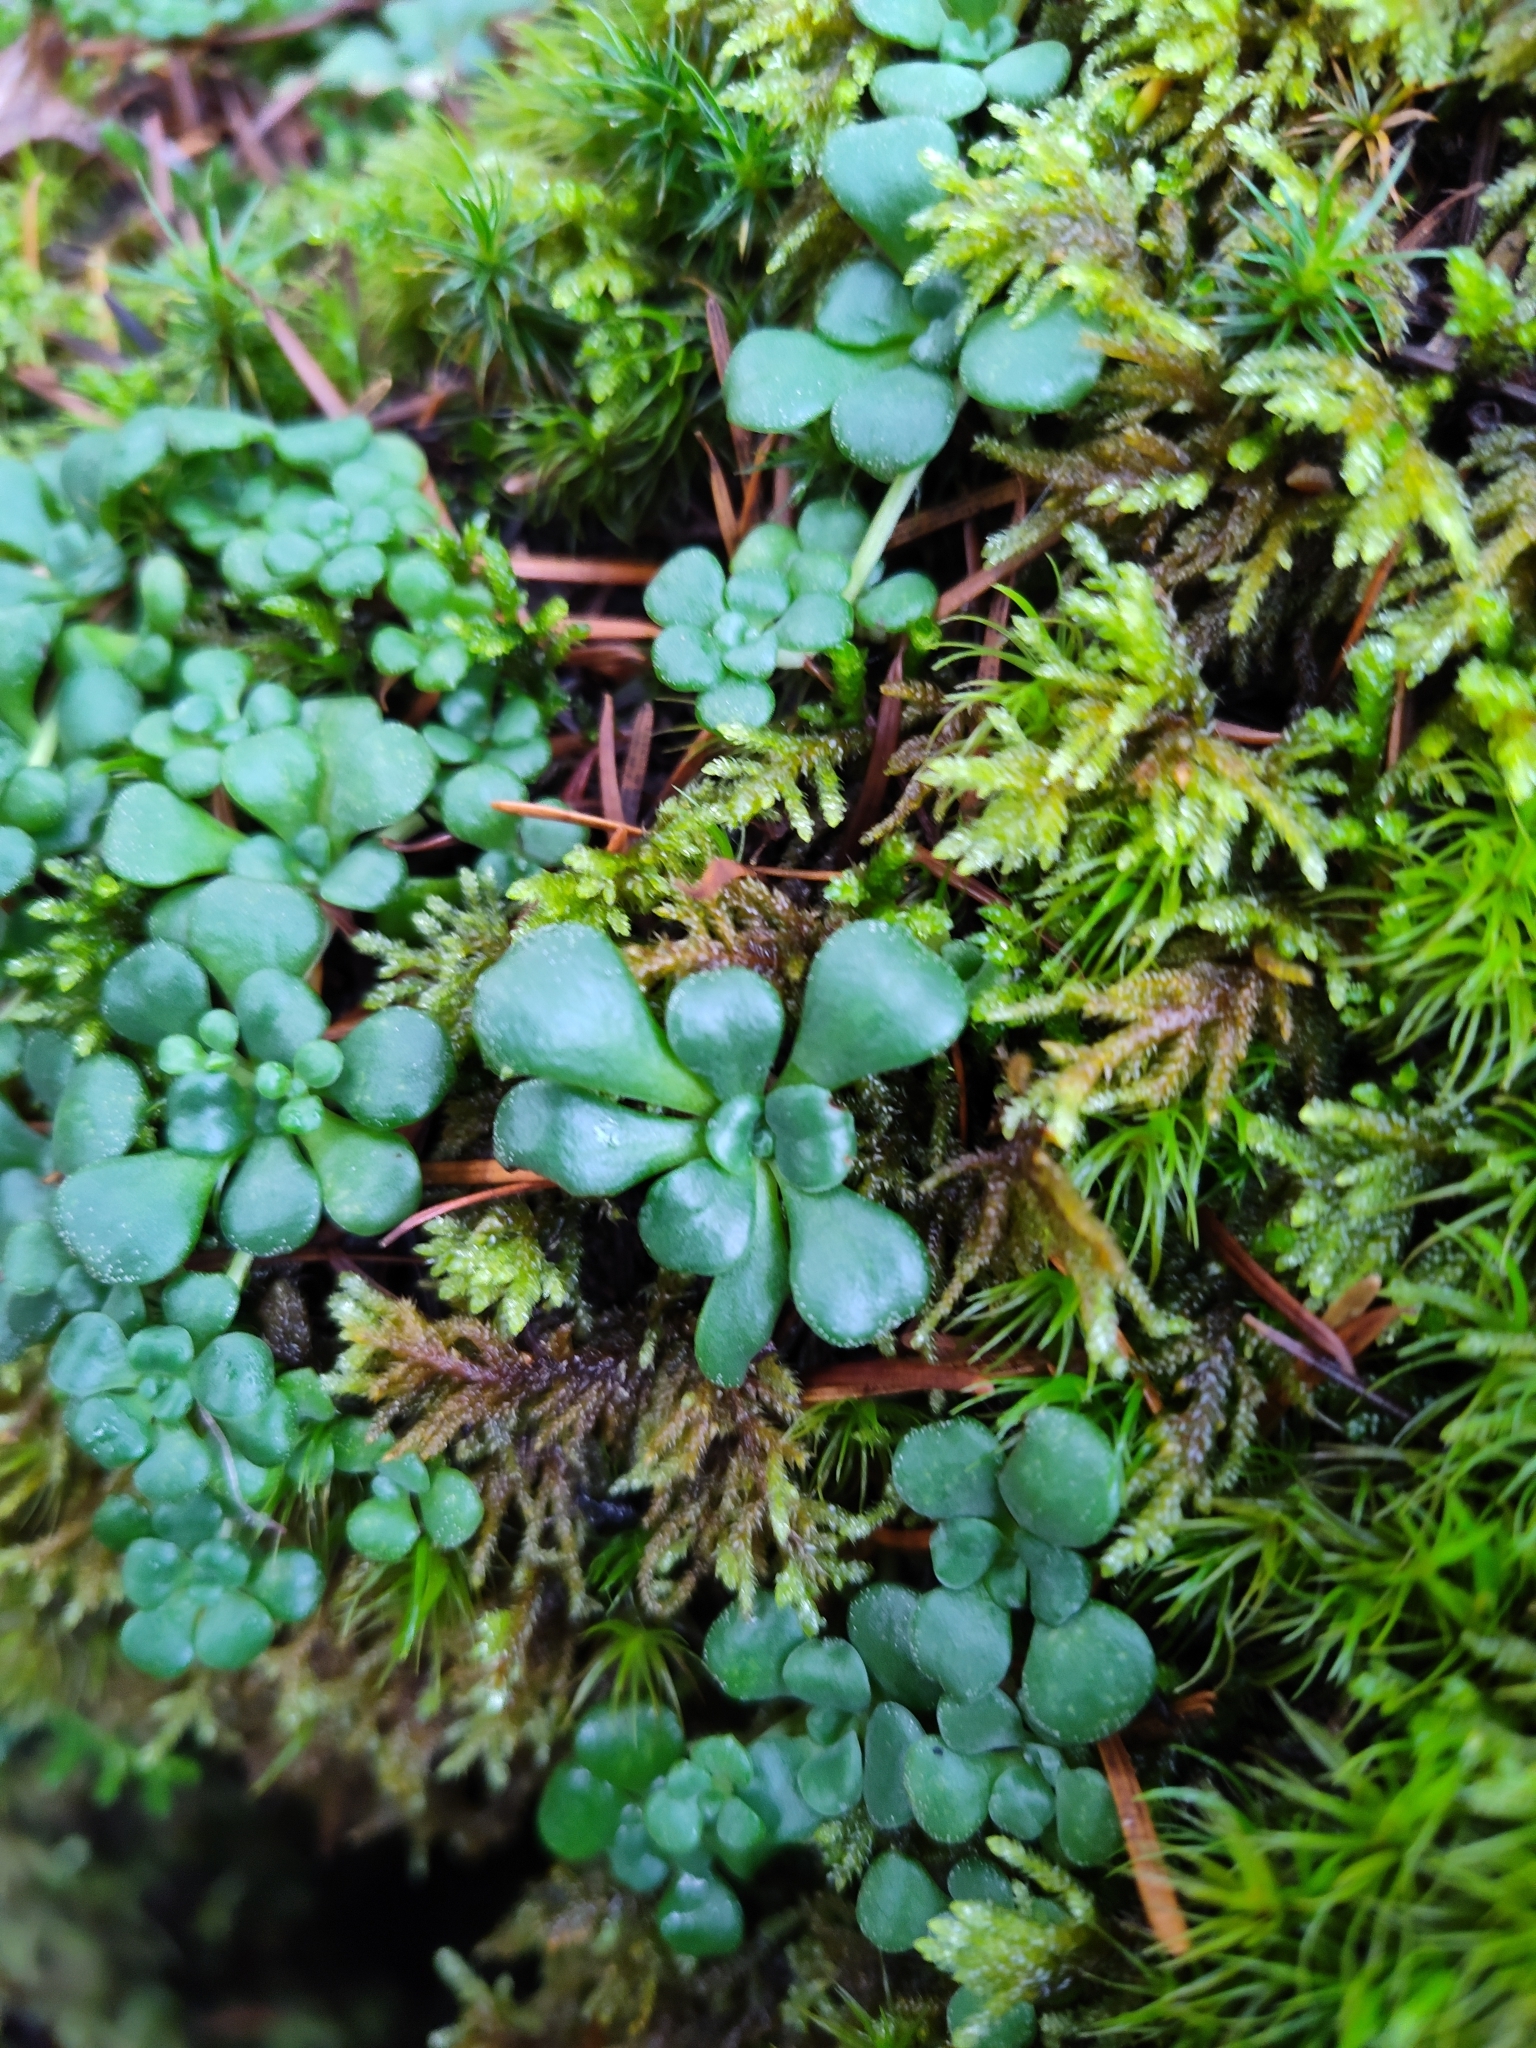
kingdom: Plantae
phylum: Tracheophyta
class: Magnoliopsida
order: Saxifragales
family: Crassulaceae
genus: Sedum
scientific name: Sedum spathulifolium
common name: Colorado stonecrop
